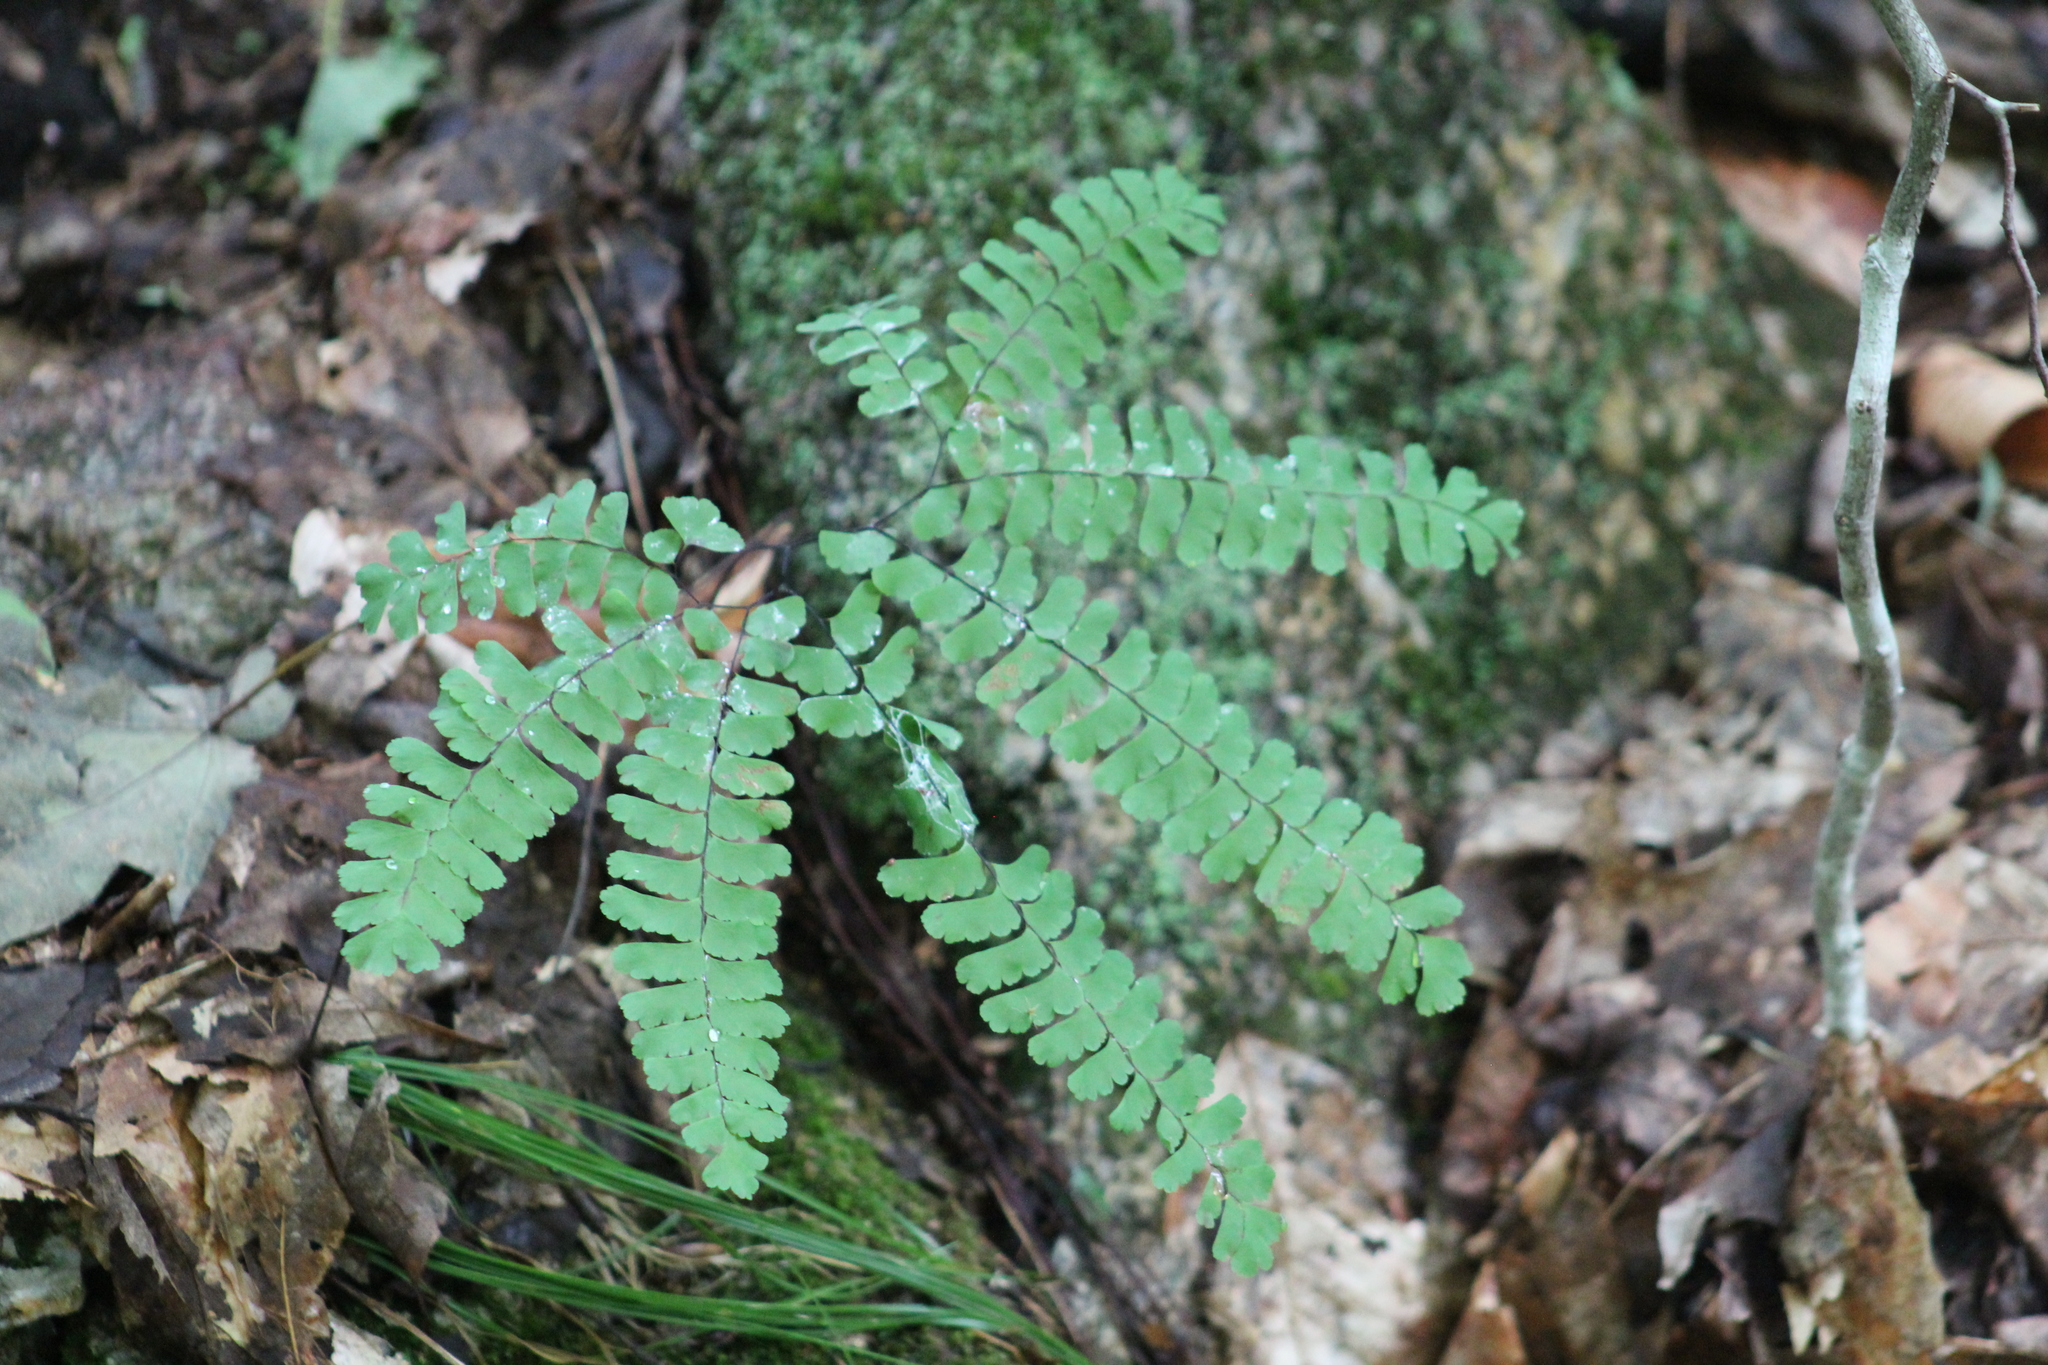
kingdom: Plantae
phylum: Tracheophyta
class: Polypodiopsida
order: Polypodiales
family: Pteridaceae
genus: Adiantum
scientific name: Adiantum pedatum
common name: Five-finger fern
